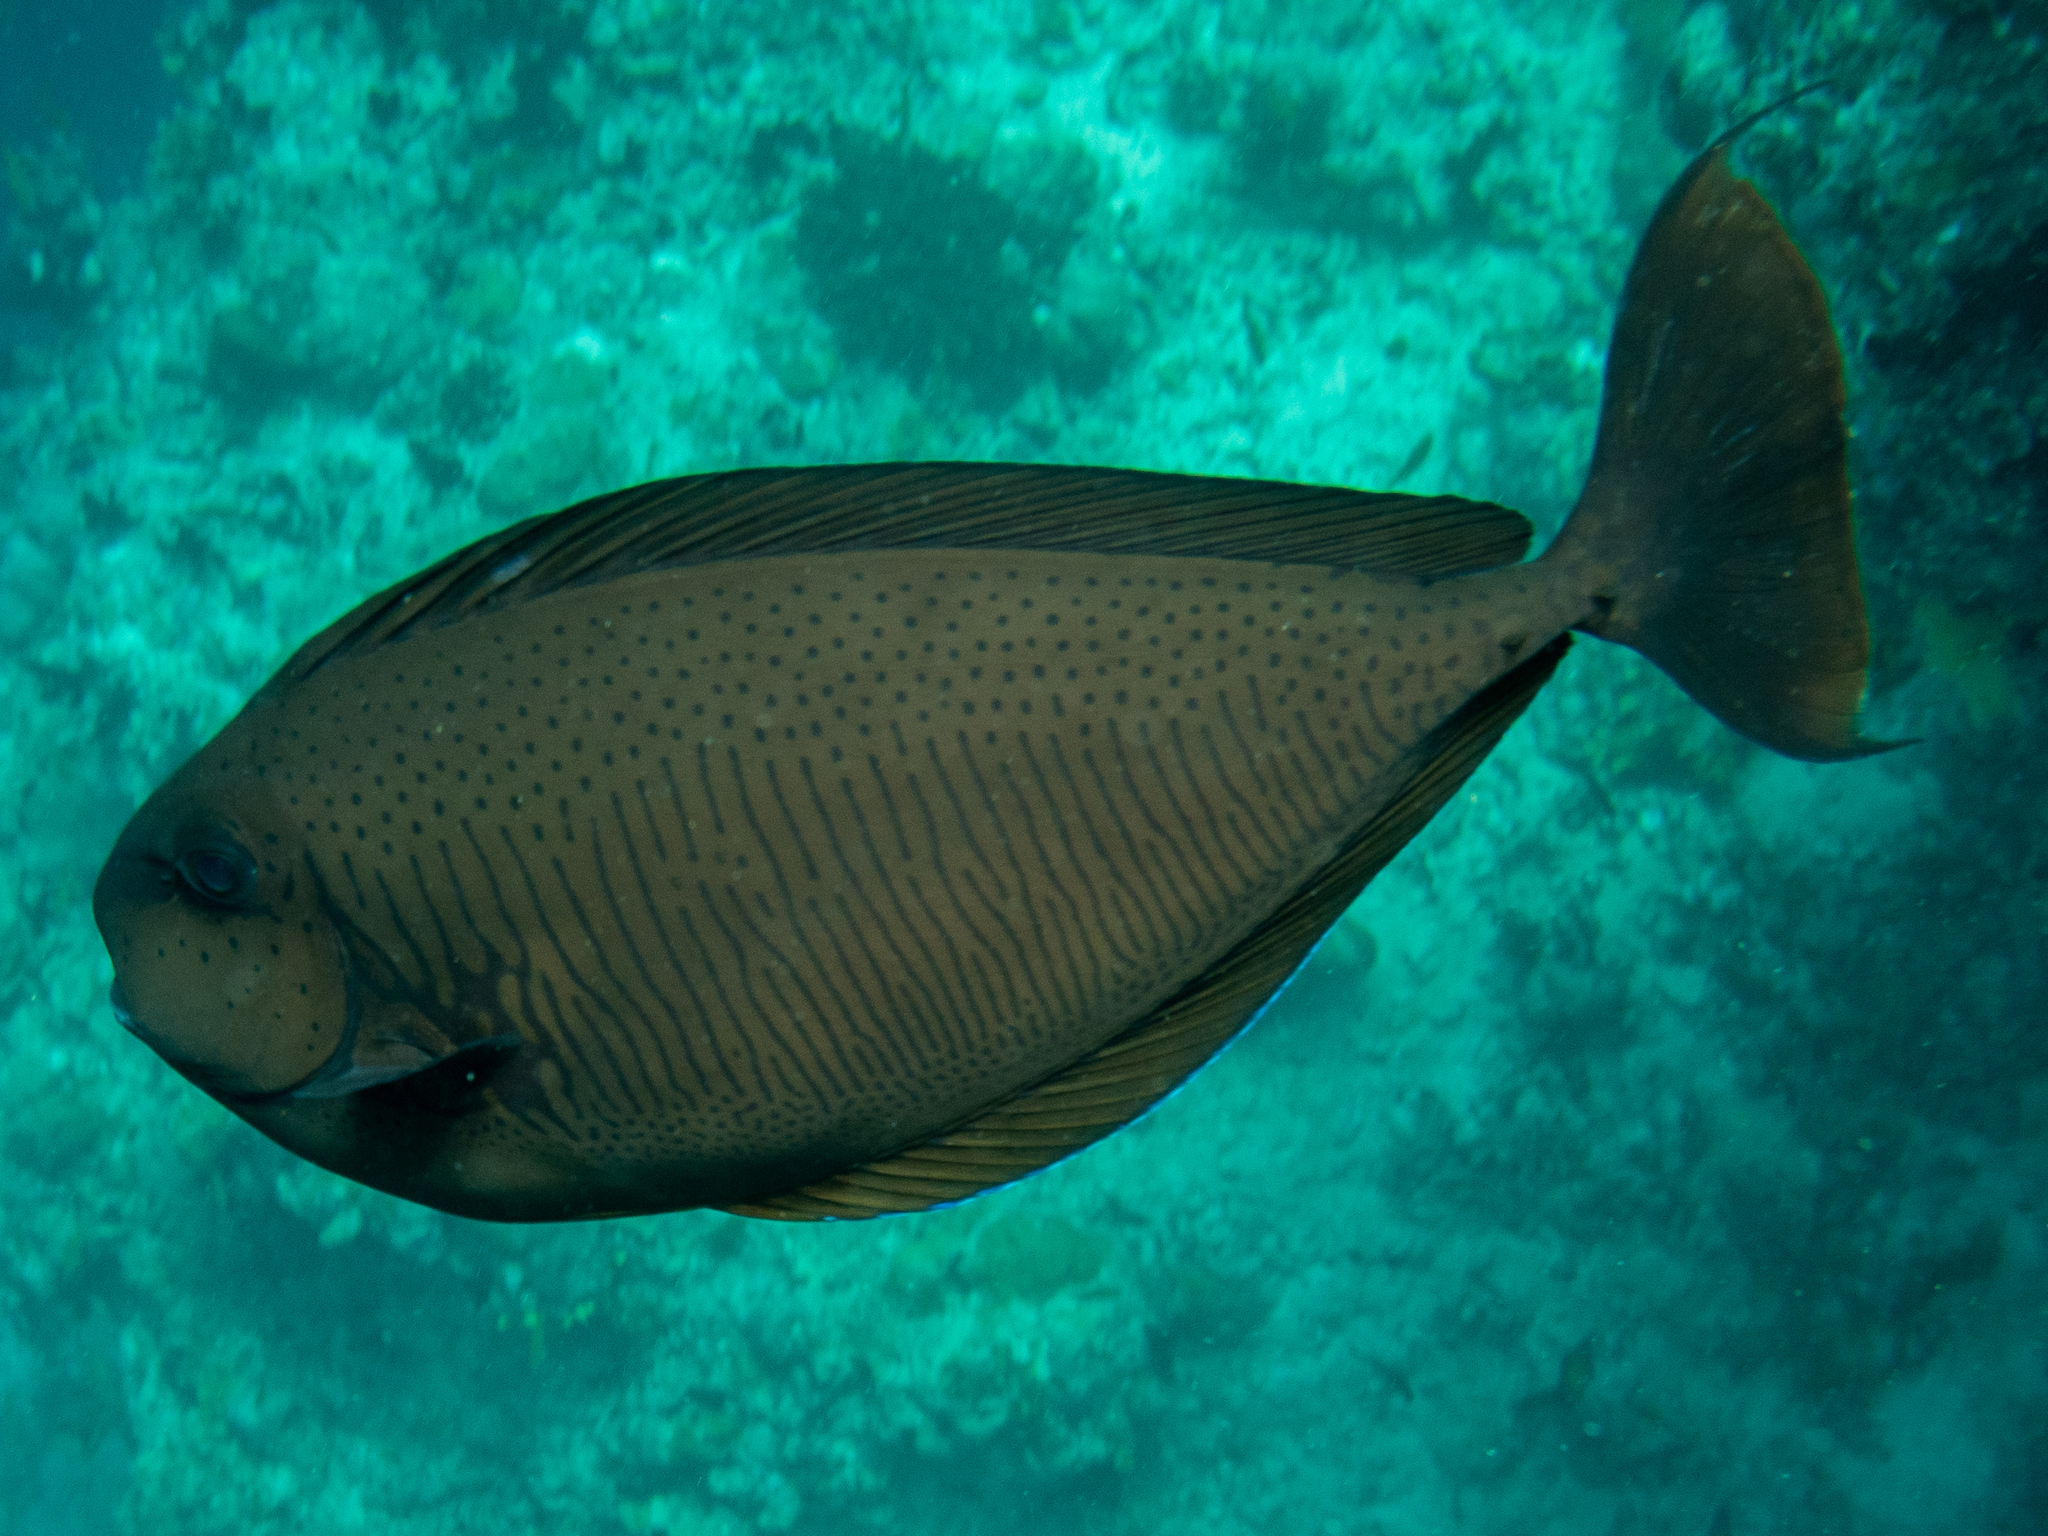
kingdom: Animalia
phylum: Chordata
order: Perciformes
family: Acanthuridae
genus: Naso
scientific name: Naso vlamingii
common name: Big-nose unicorn
